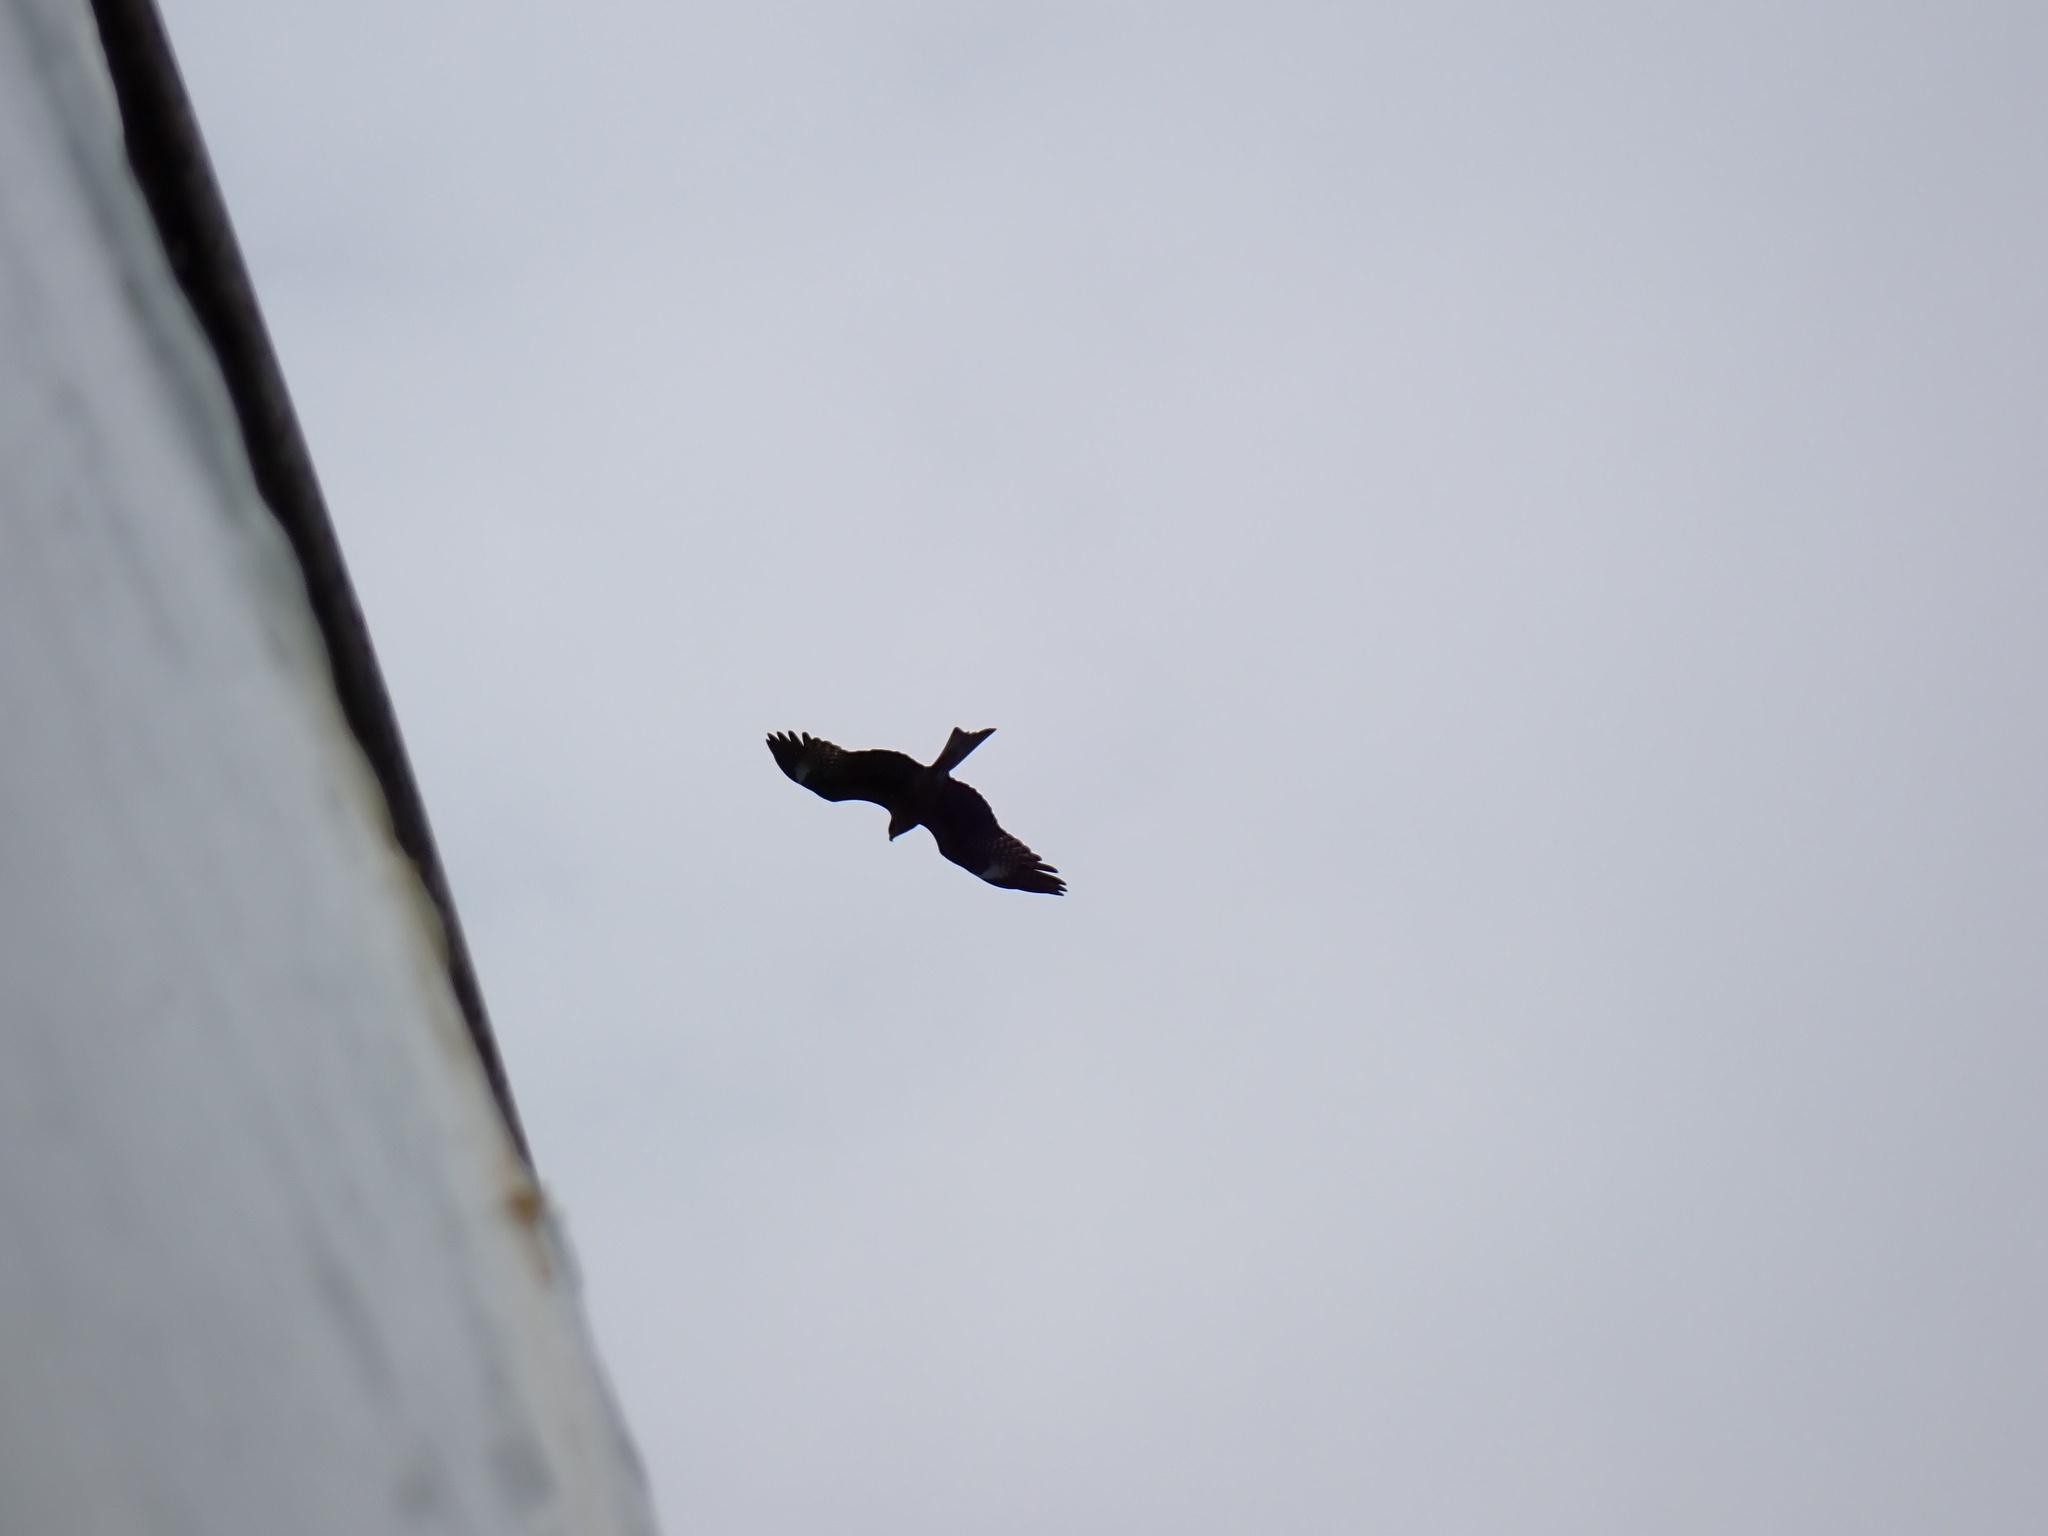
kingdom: Animalia
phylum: Chordata
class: Aves
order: Accipitriformes
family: Accipitridae
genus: Milvus
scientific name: Milvus migrans
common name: Black kite
